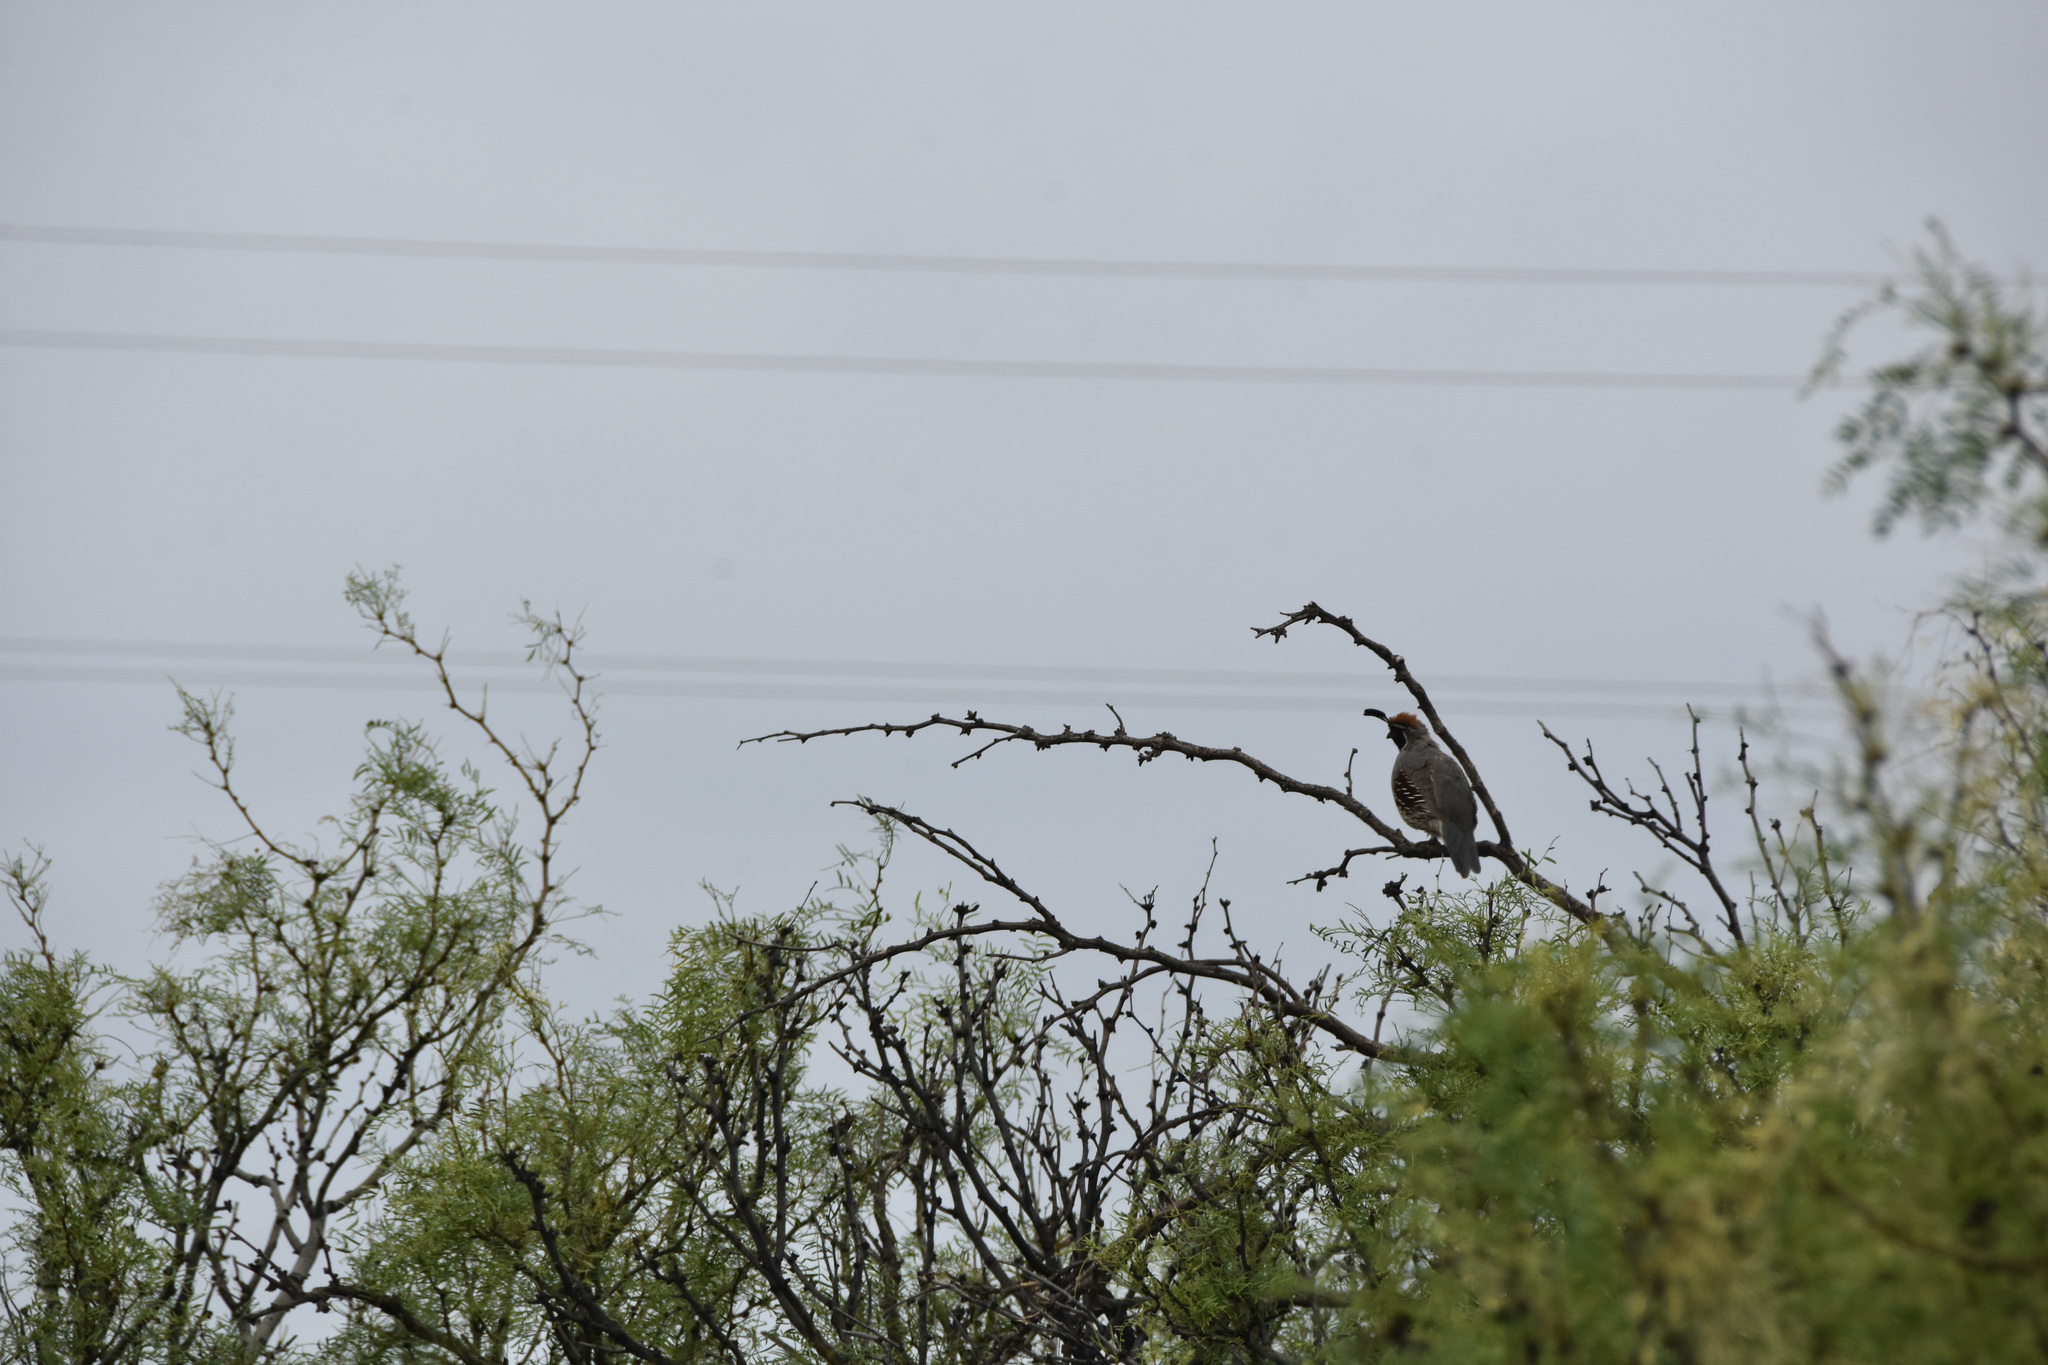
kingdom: Animalia
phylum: Chordata
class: Aves
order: Galliformes
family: Odontophoridae
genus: Callipepla
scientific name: Callipepla gambelii
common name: Gambel's quail
